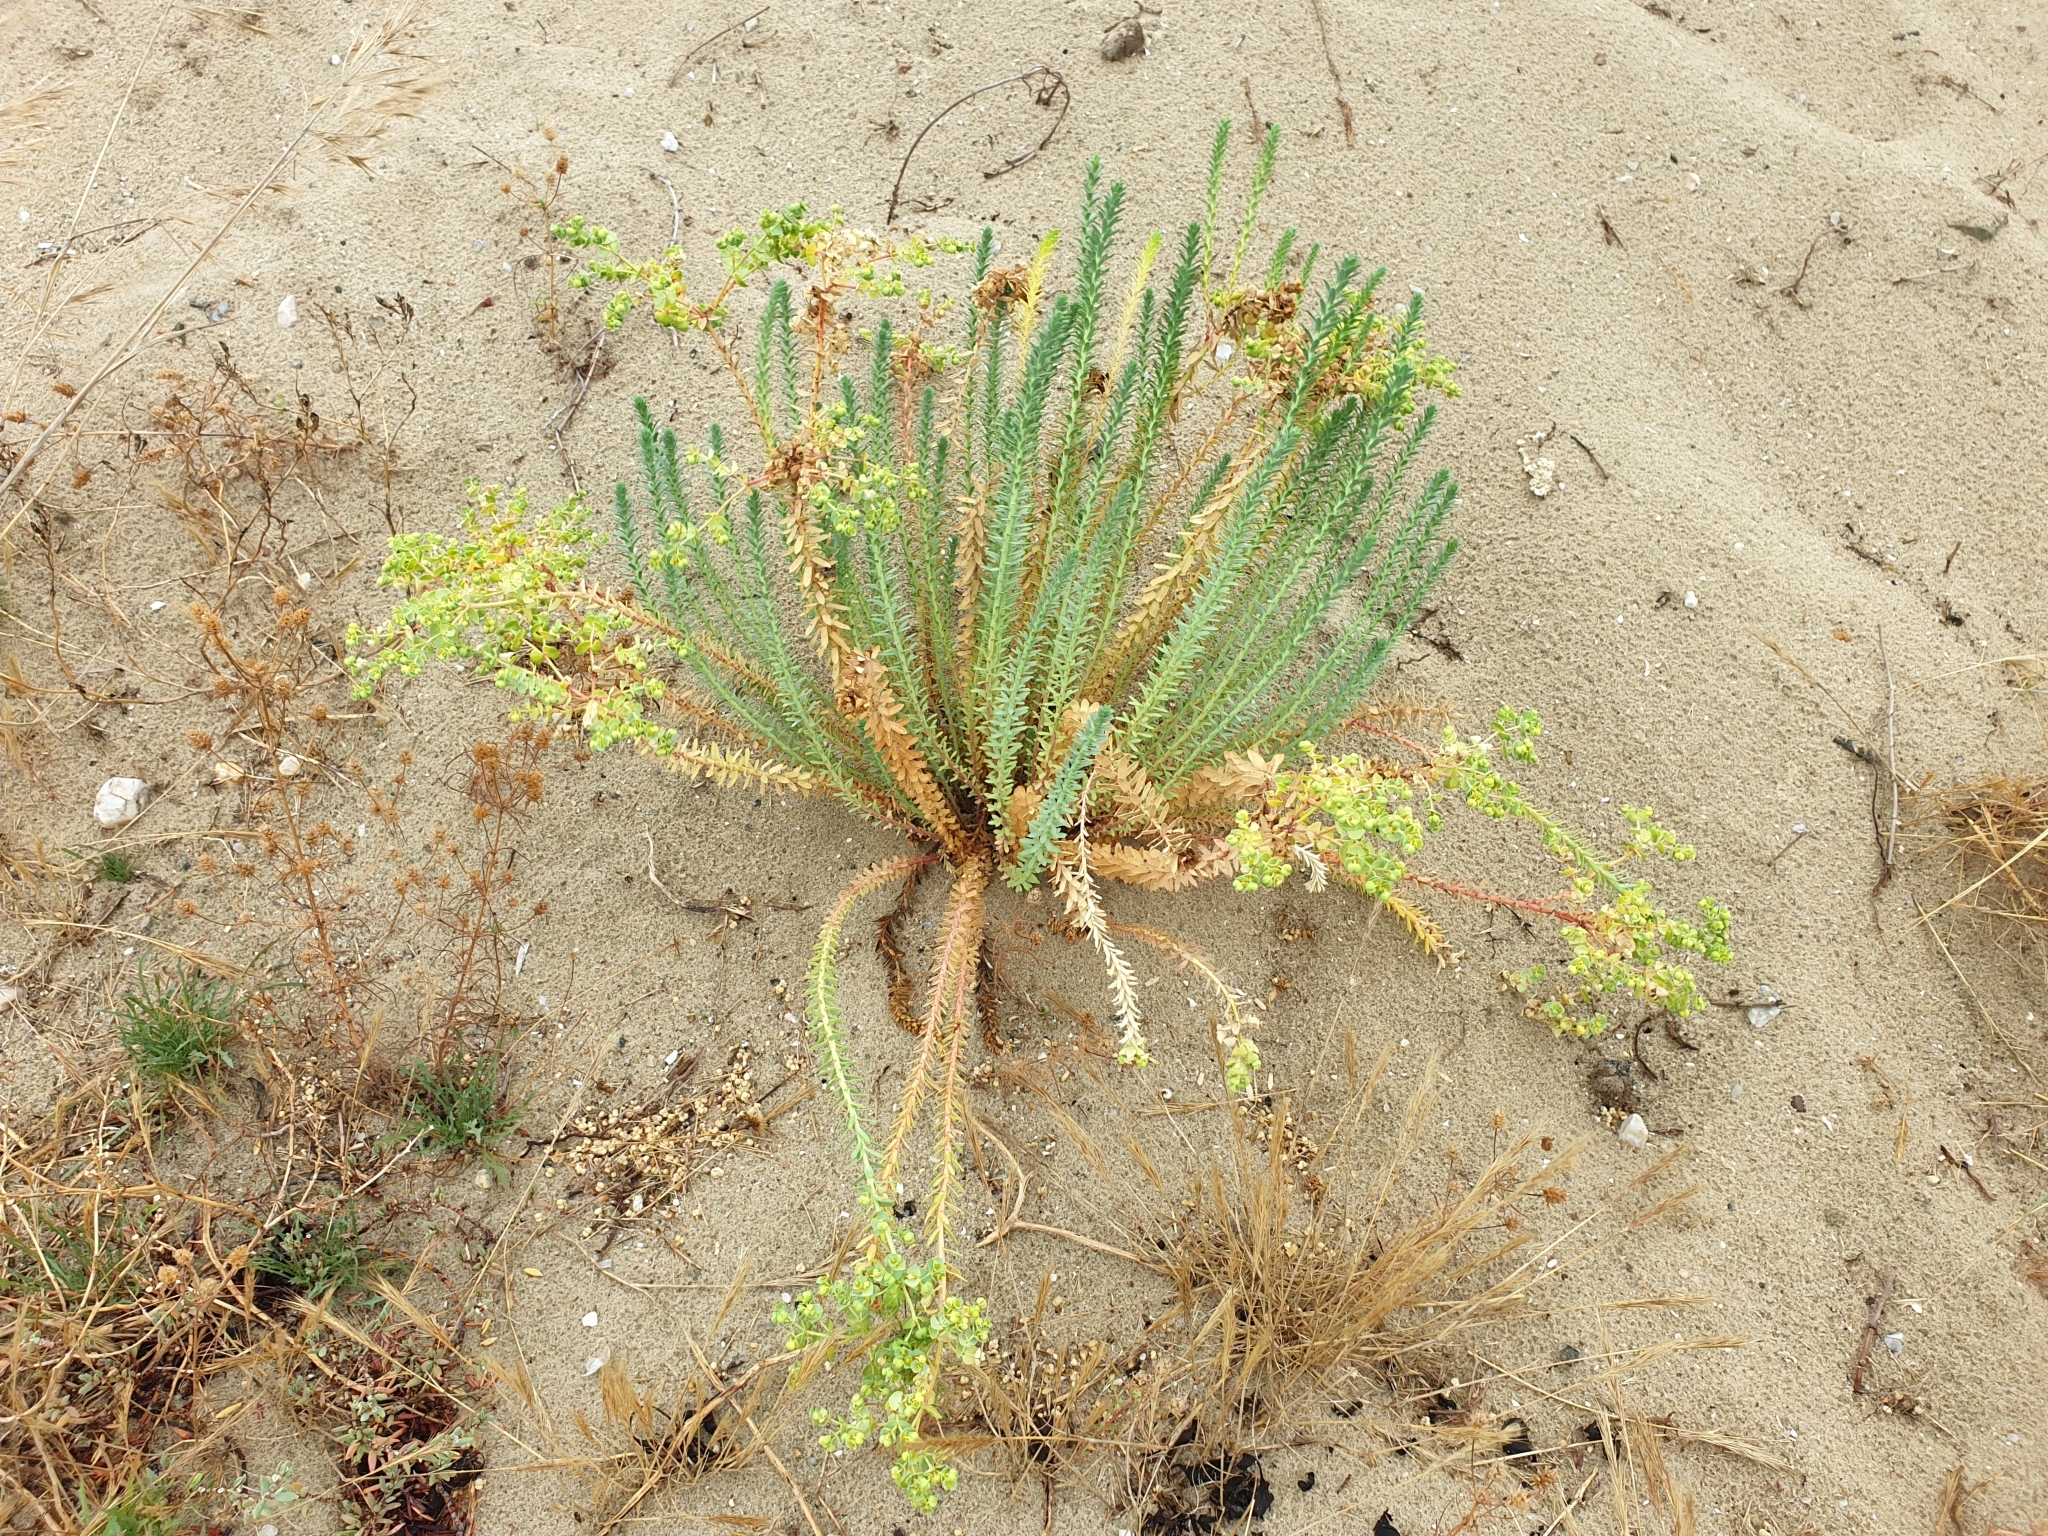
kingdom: Plantae
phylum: Tracheophyta
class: Magnoliopsida
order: Malpighiales
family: Euphorbiaceae
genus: Euphorbia
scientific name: Euphorbia paralias
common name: Sea spurge
